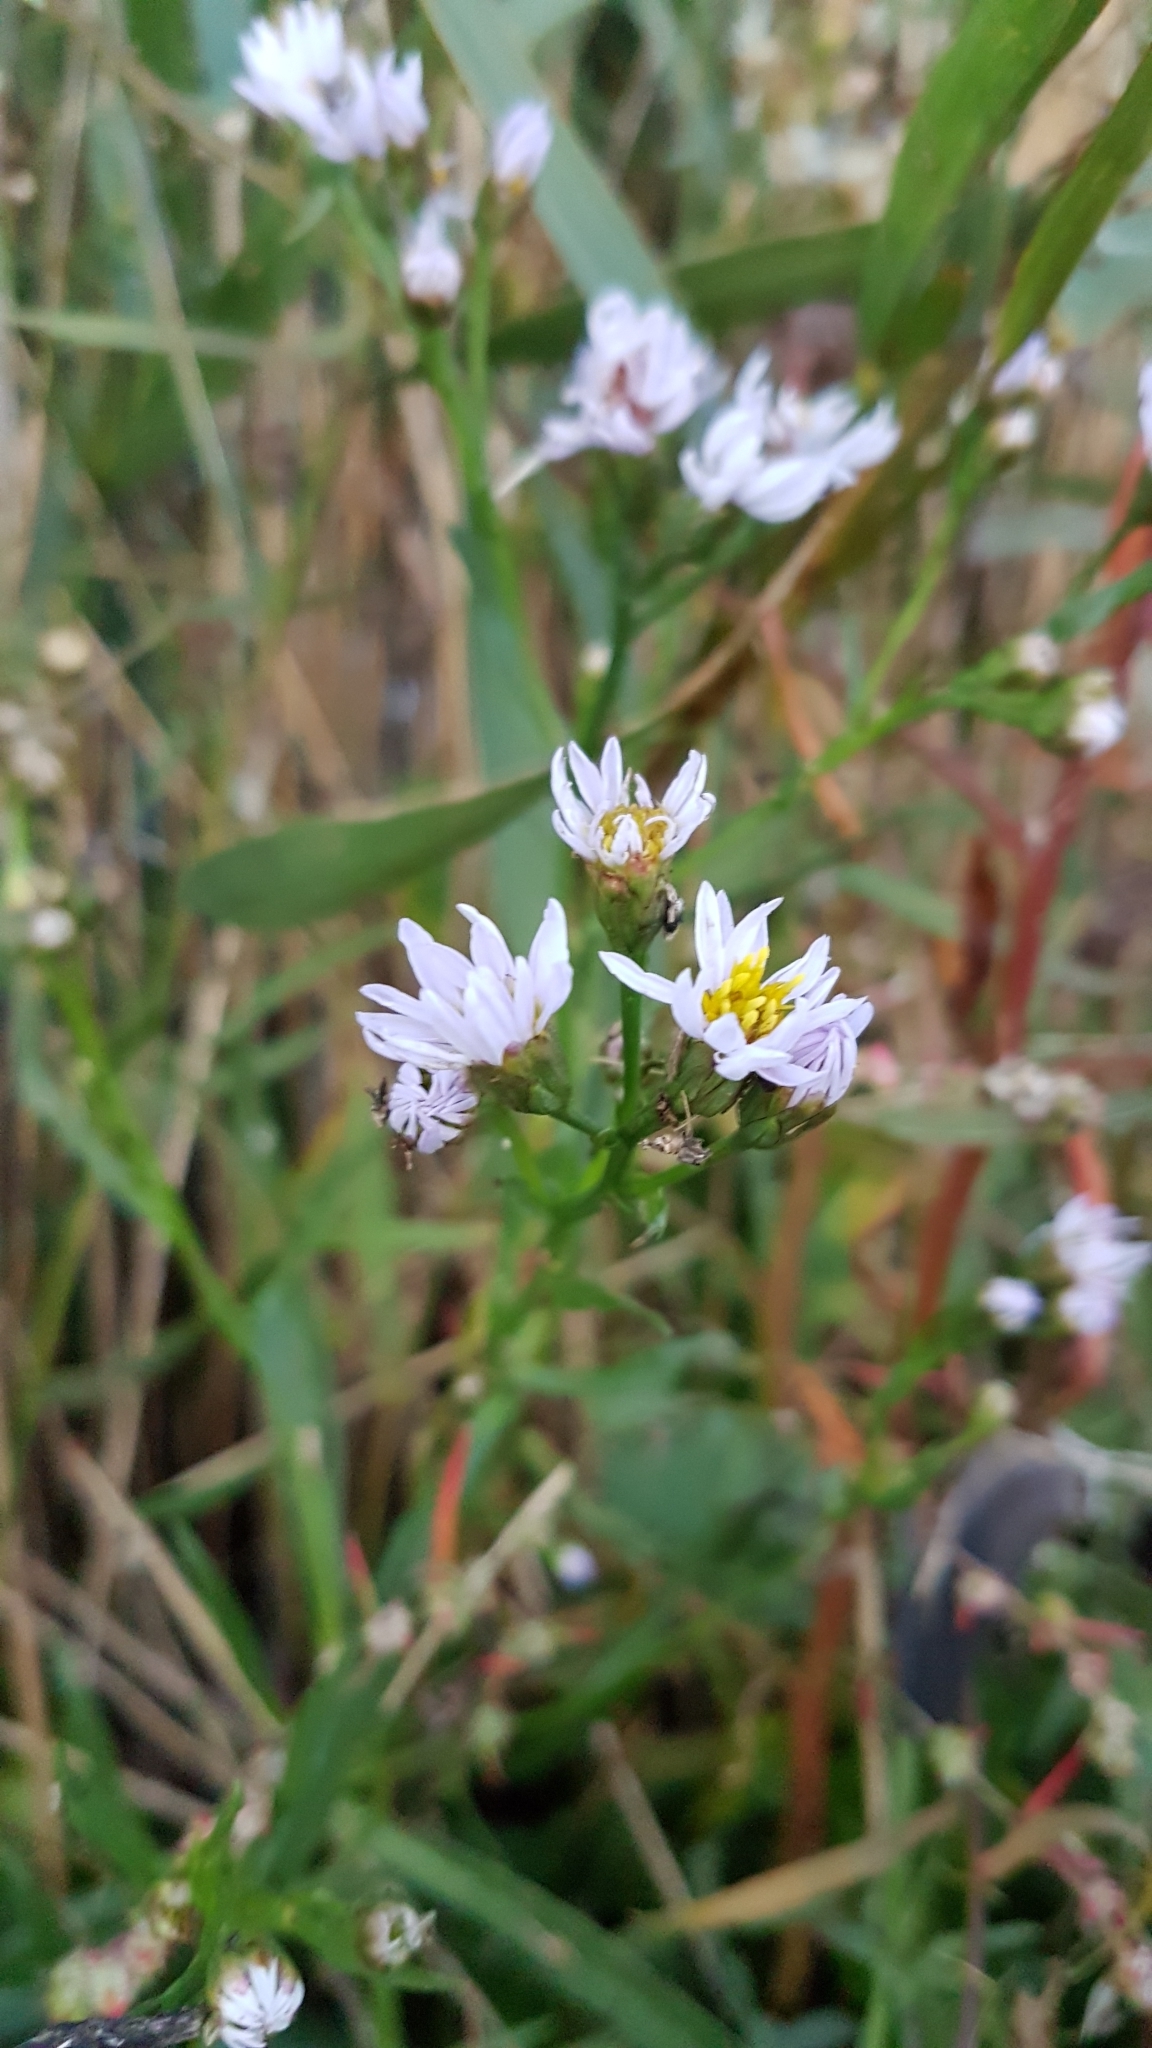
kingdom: Plantae
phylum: Tracheophyta
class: Magnoliopsida
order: Asterales
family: Asteraceae
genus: Tripolium
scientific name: Tripolium pannonicum
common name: Sea aster
